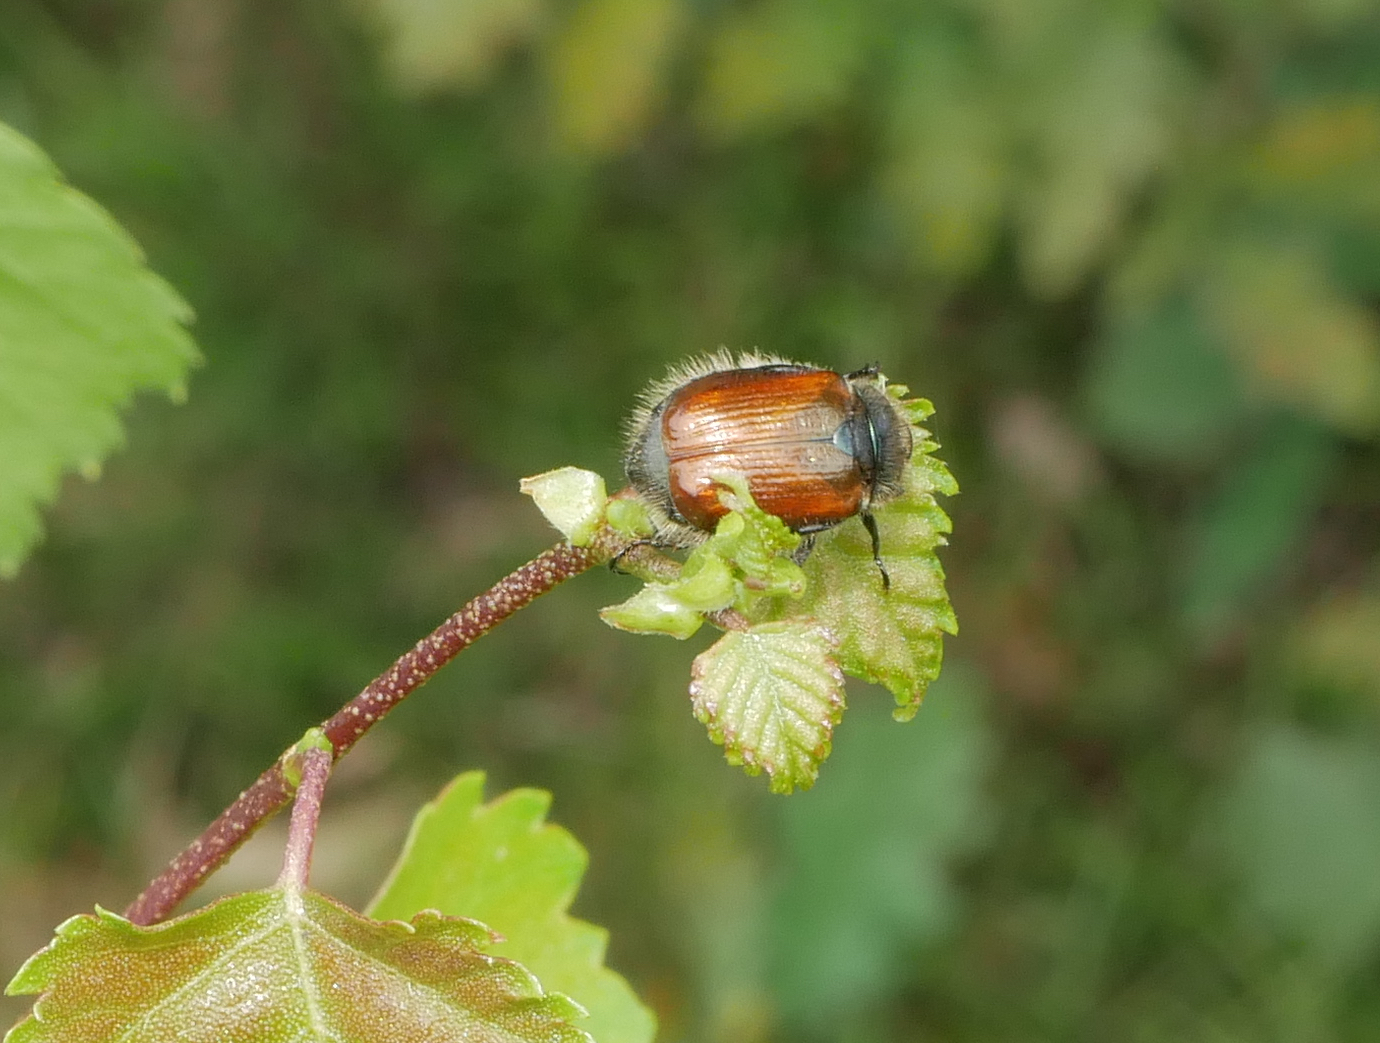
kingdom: Animalia
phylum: Arthropoda
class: Insecta
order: Coleoptera
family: Scarabaeidae
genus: Phyllopertha
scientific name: Phyllopertha horticola
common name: Garden chafer
